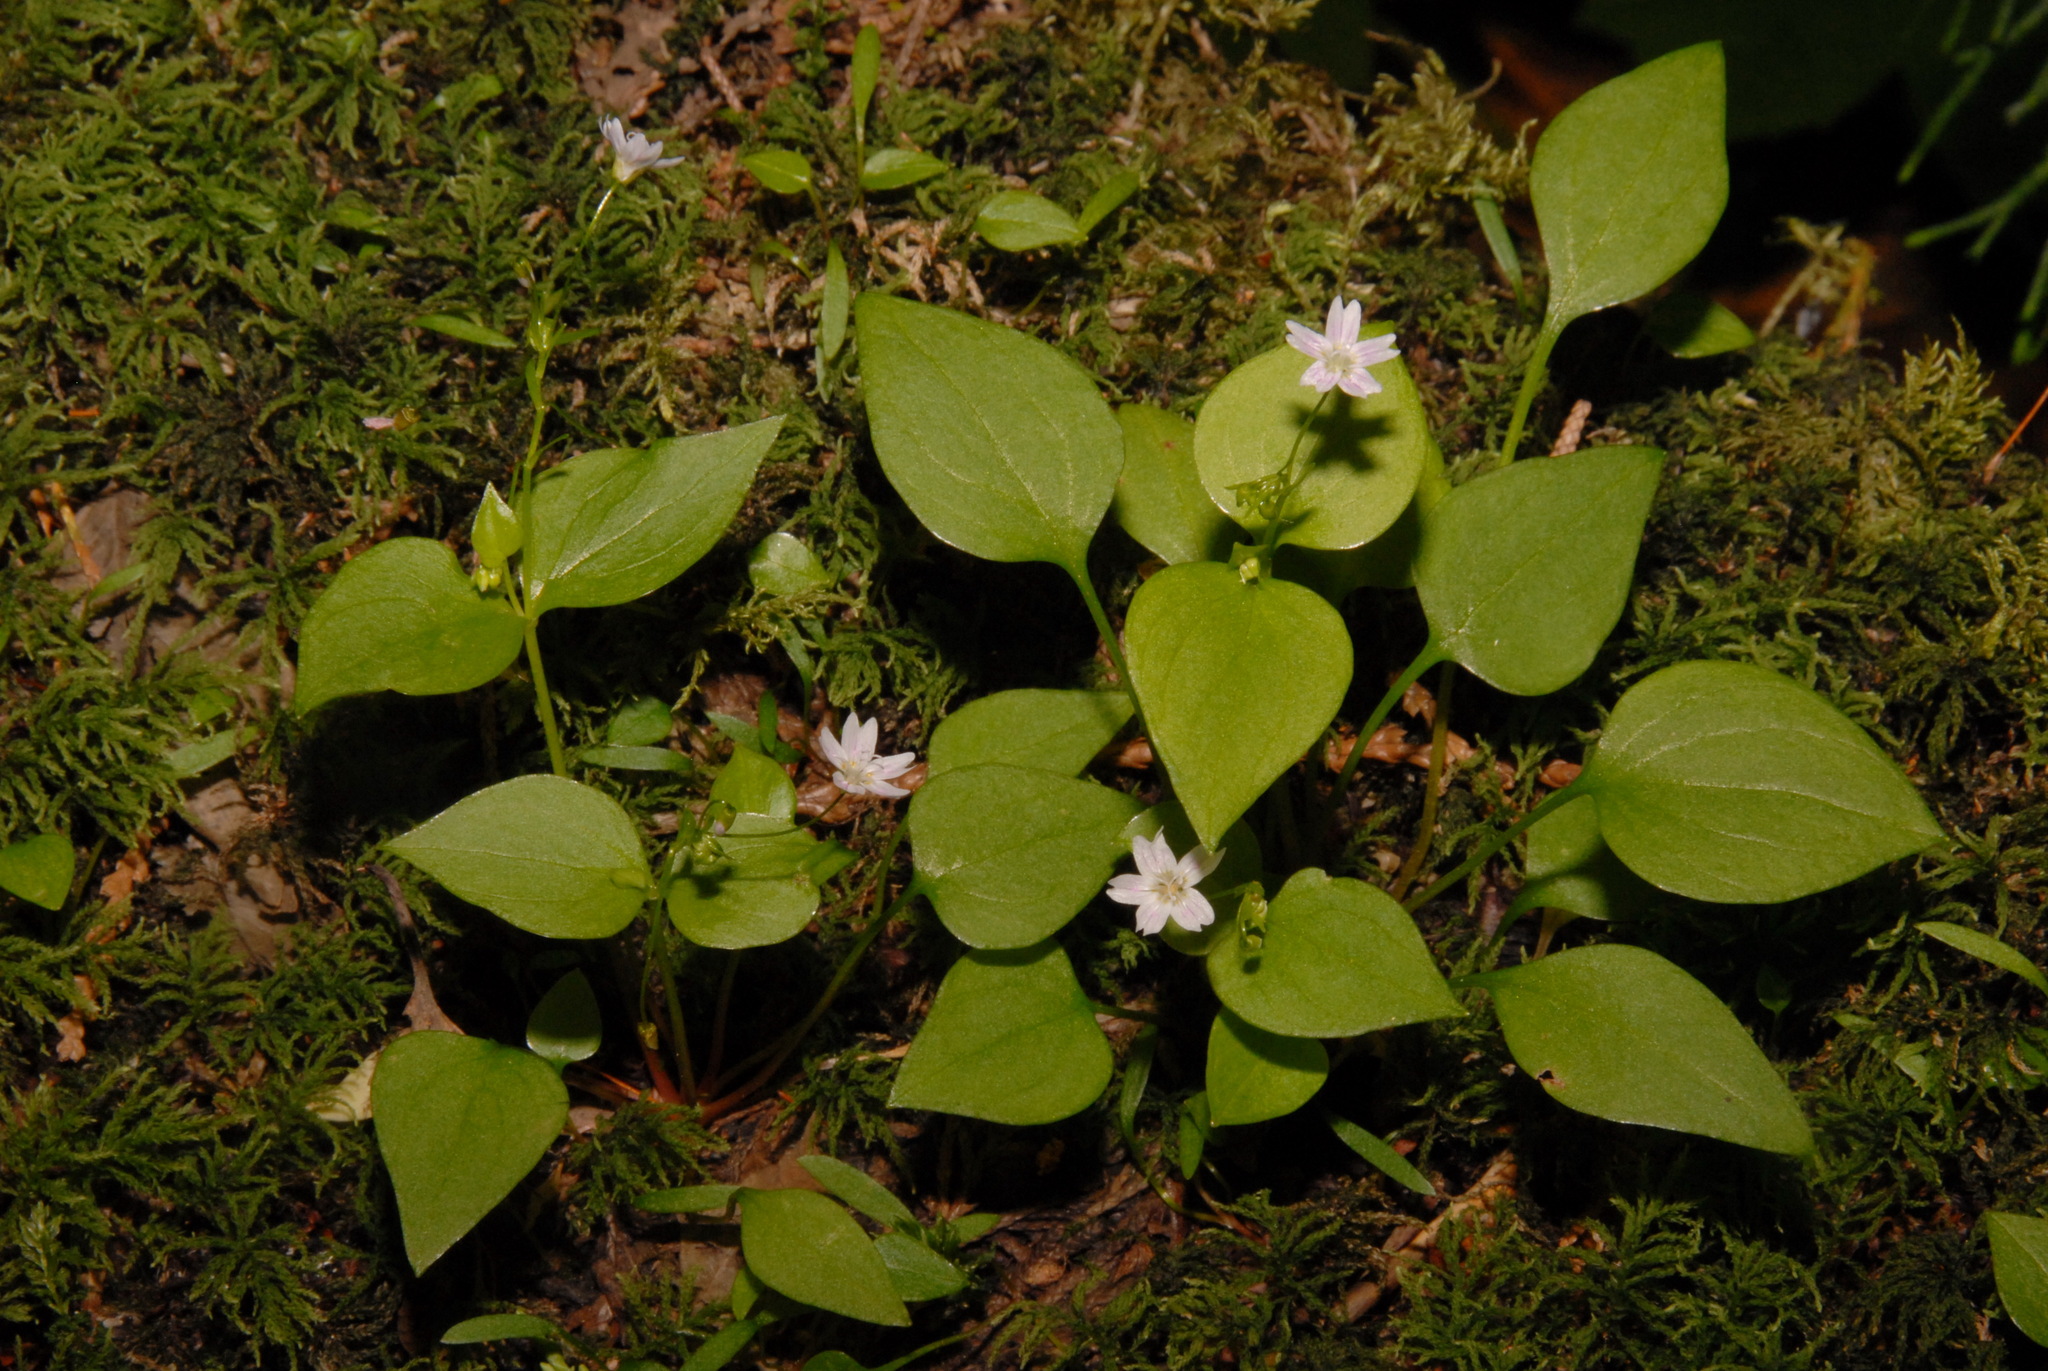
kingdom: Plantae
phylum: Tracheophyta
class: Magnoliopsida
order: Caryophyllales
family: Montiaceae
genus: Claytonia
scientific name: Claytonia sibirica
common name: Pink purslane
